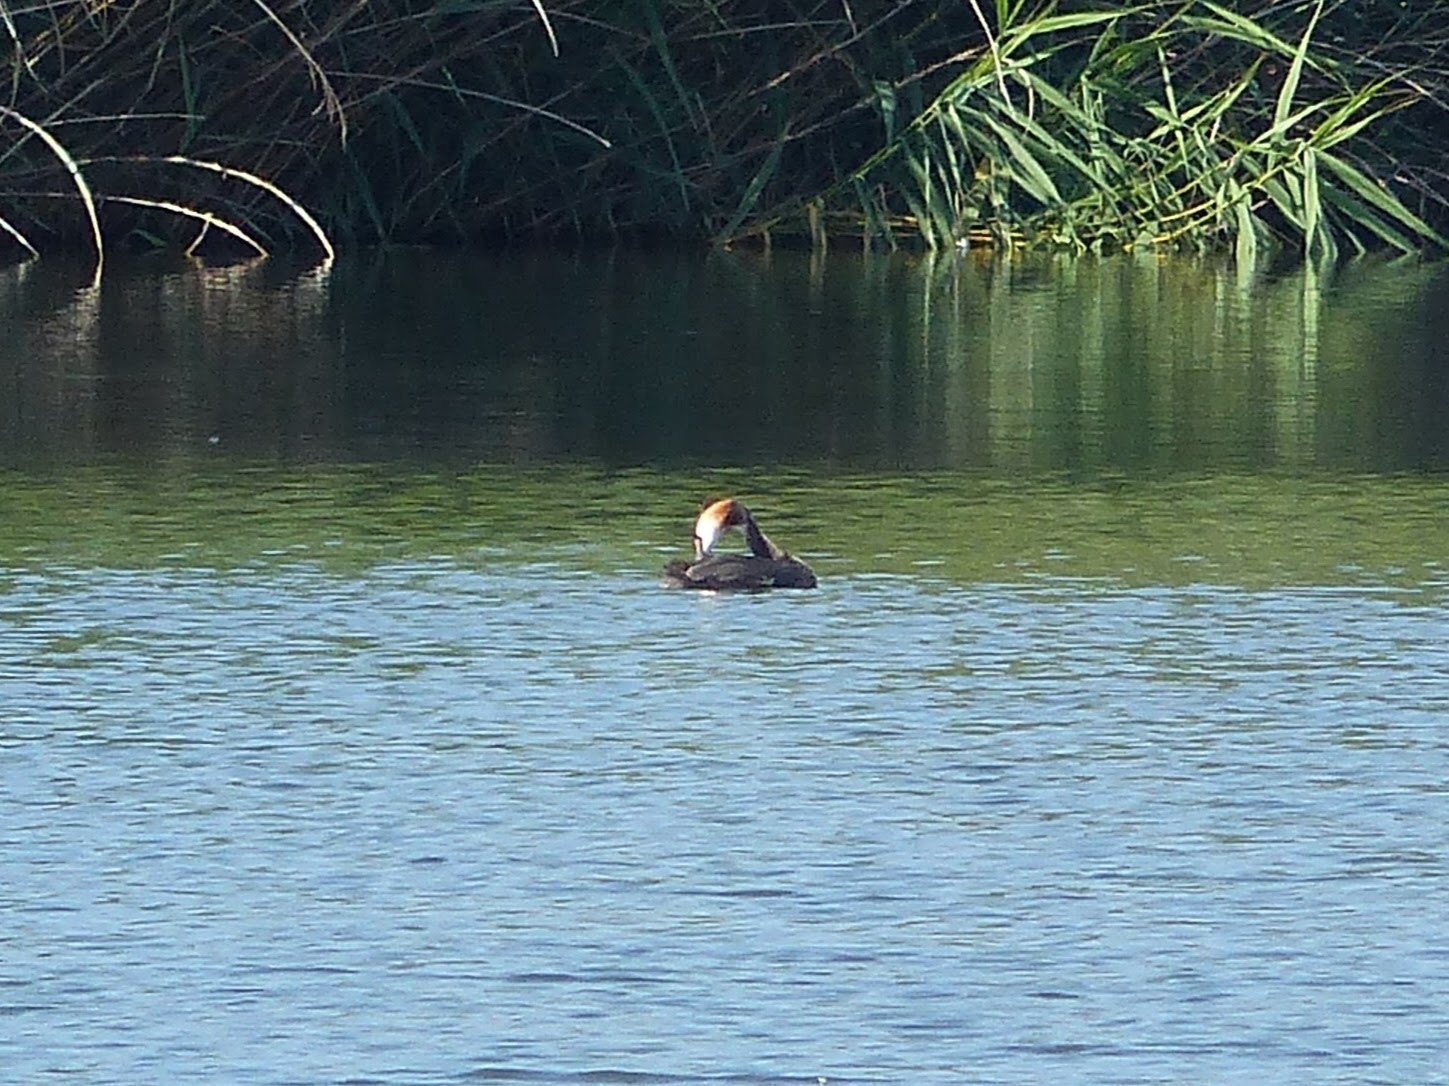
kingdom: Animalia
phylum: Chordata
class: Aves
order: Podicipediformes
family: Podicipedidae
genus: Podiceps
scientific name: Podiceps cristatus
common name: Great crested grebe
